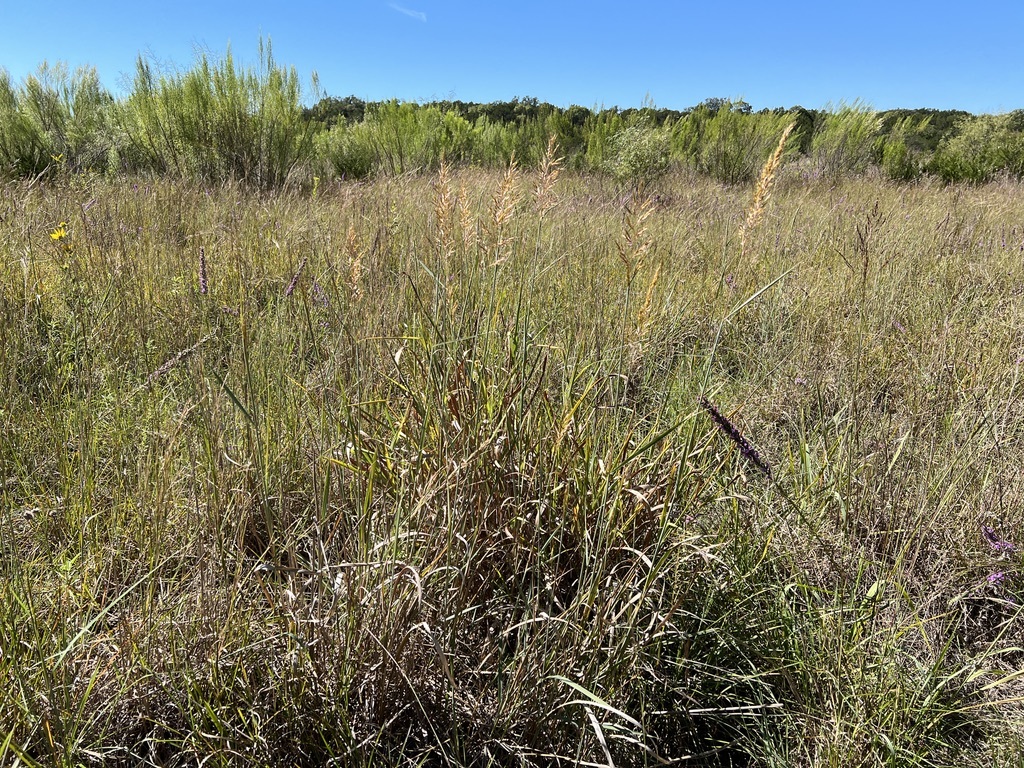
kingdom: Plantae
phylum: Tracheophyta
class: Liliopsida
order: Poales
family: Poaceae
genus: Sorghastrum
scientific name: Sorghastrum nutans
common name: Indian grass
